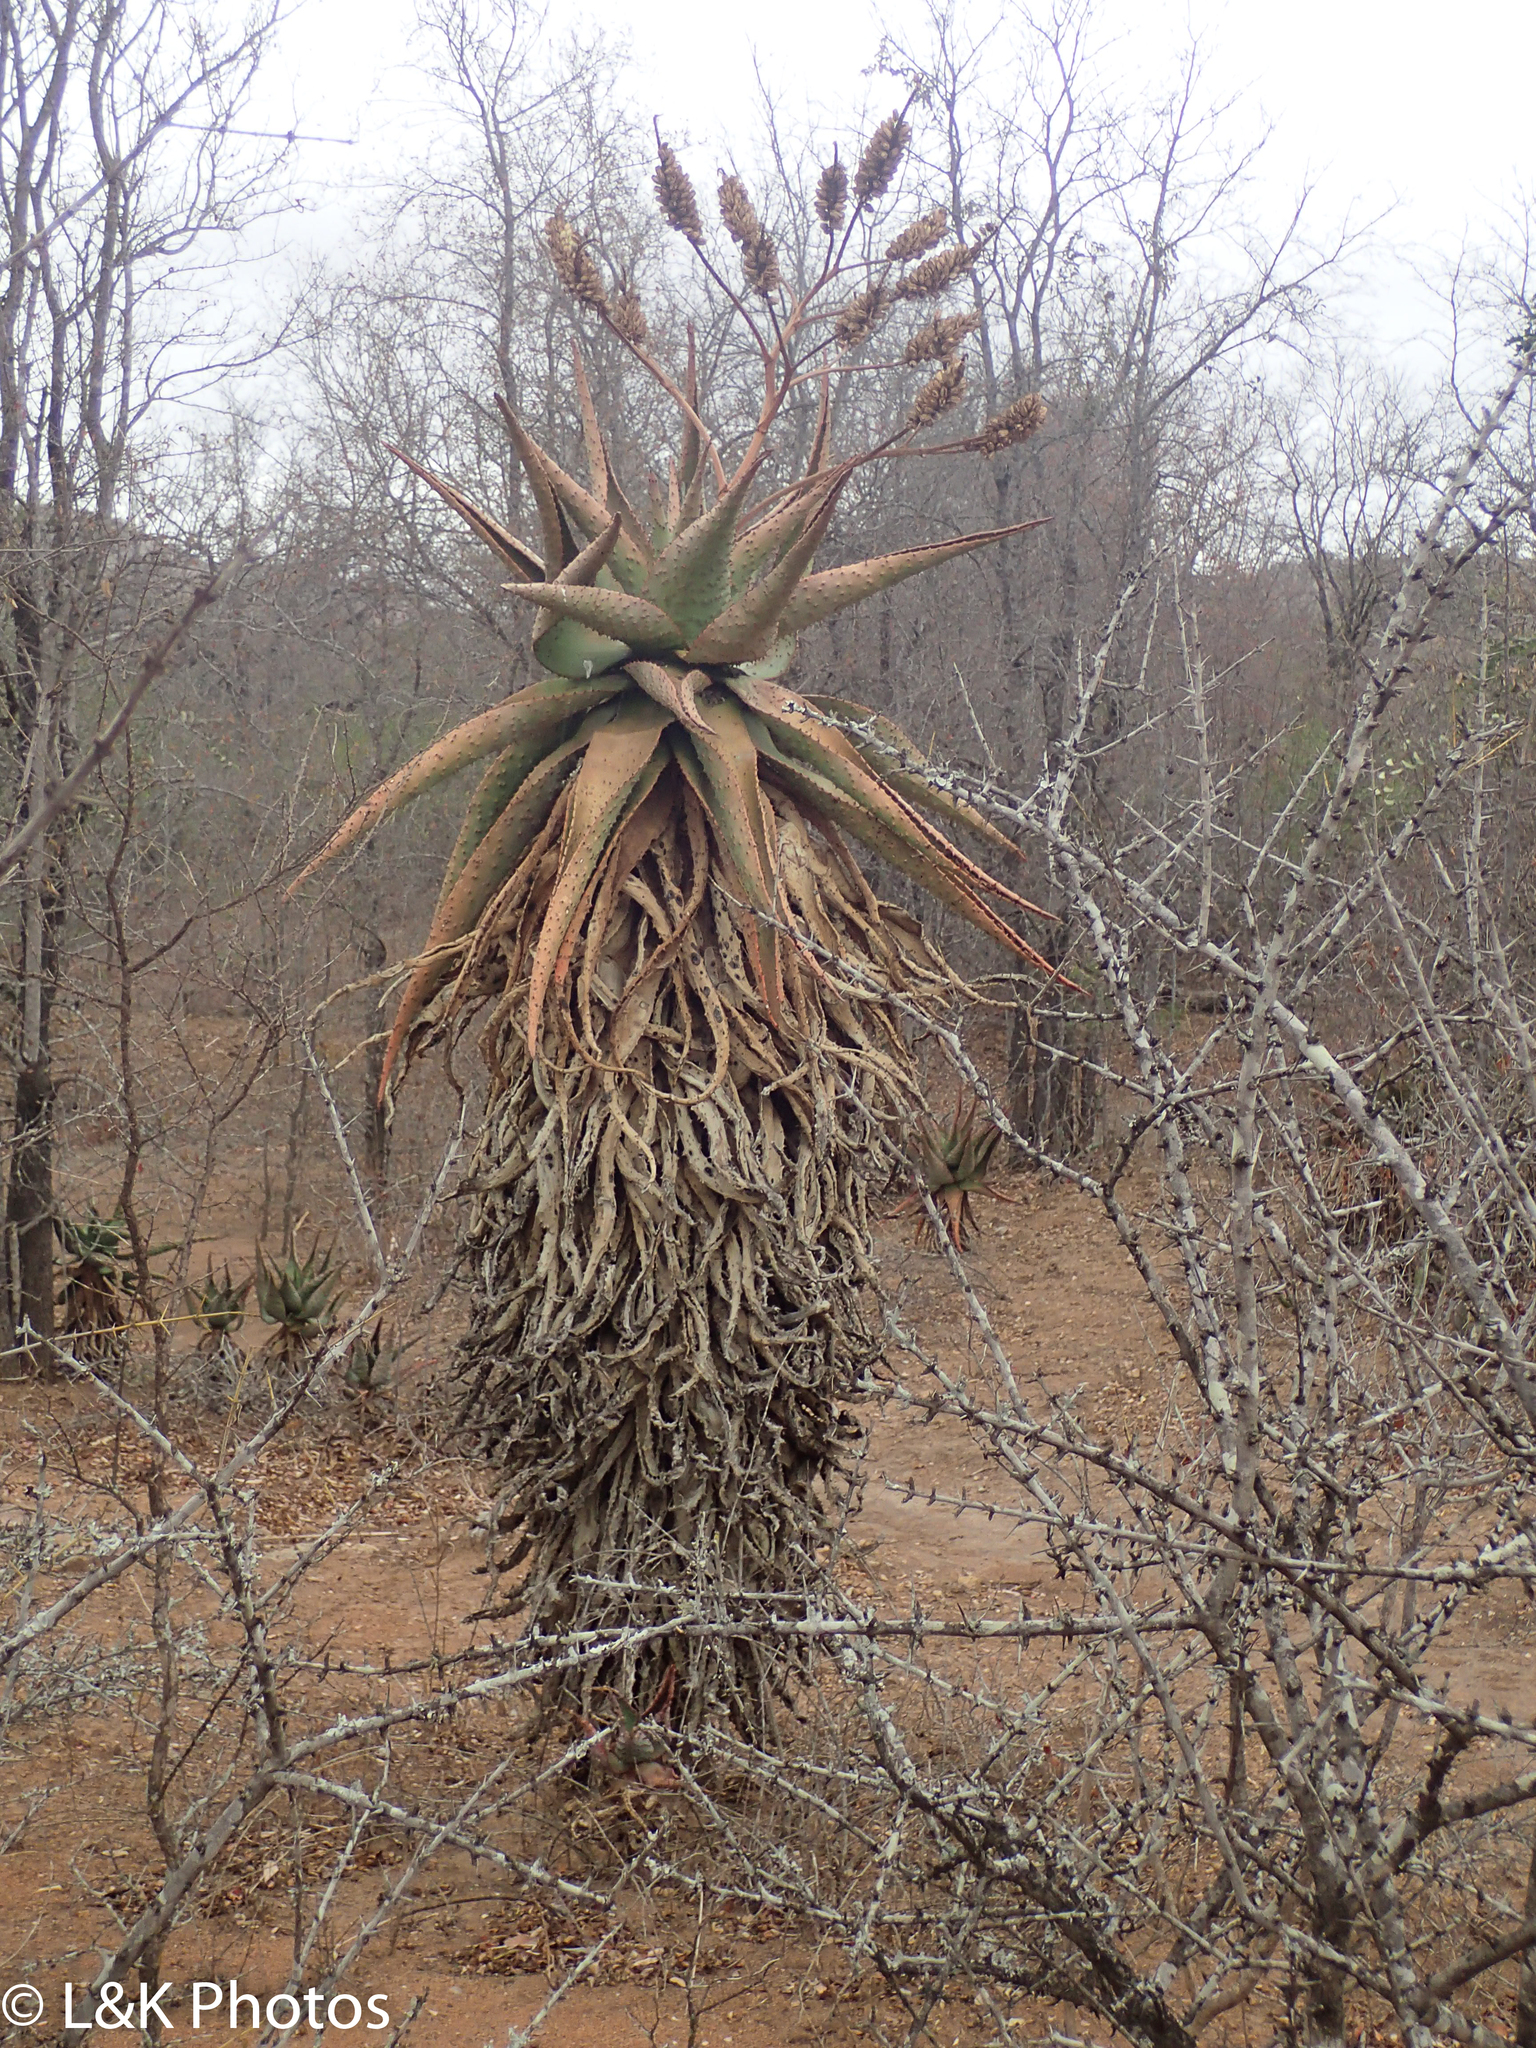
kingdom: Plantae
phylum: Tracheophyta
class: Liliopsida
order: Asparagales
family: Asphodelaceae
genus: Aloe
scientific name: Aloe marlothii
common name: Flat-flowered aloe
